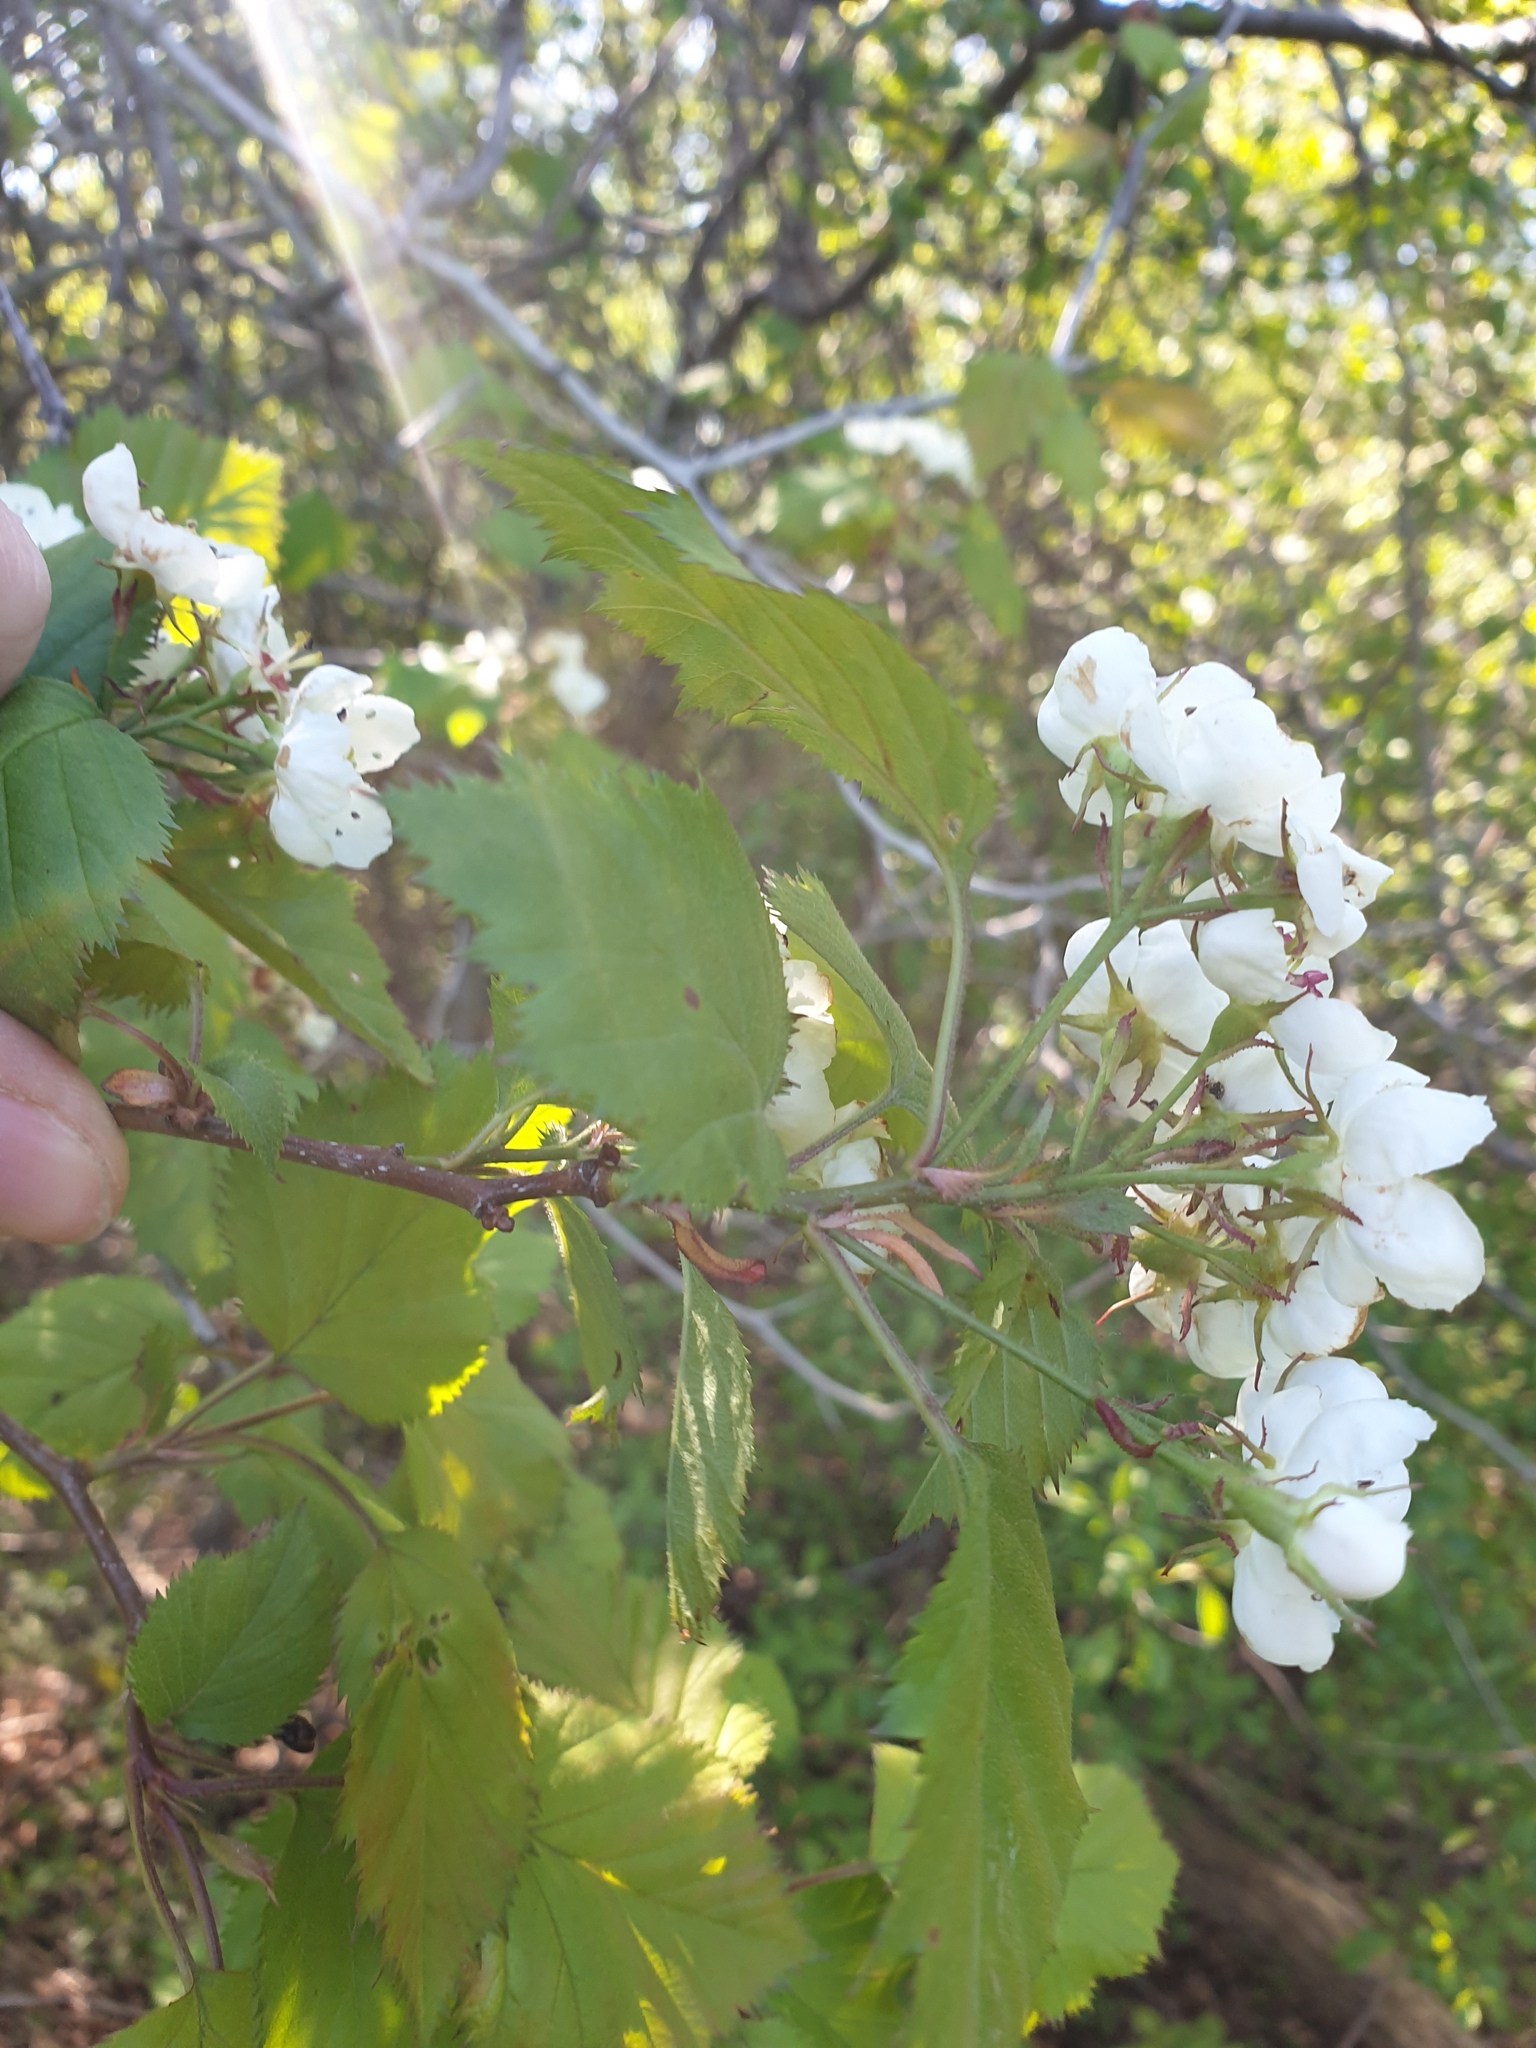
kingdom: Plantae
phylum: Tracheophyta
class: Magnoliopsida
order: Rosales
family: Rosaceae
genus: Crataegus
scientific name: Crataegus coccinea
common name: Scarlet hawthorn
